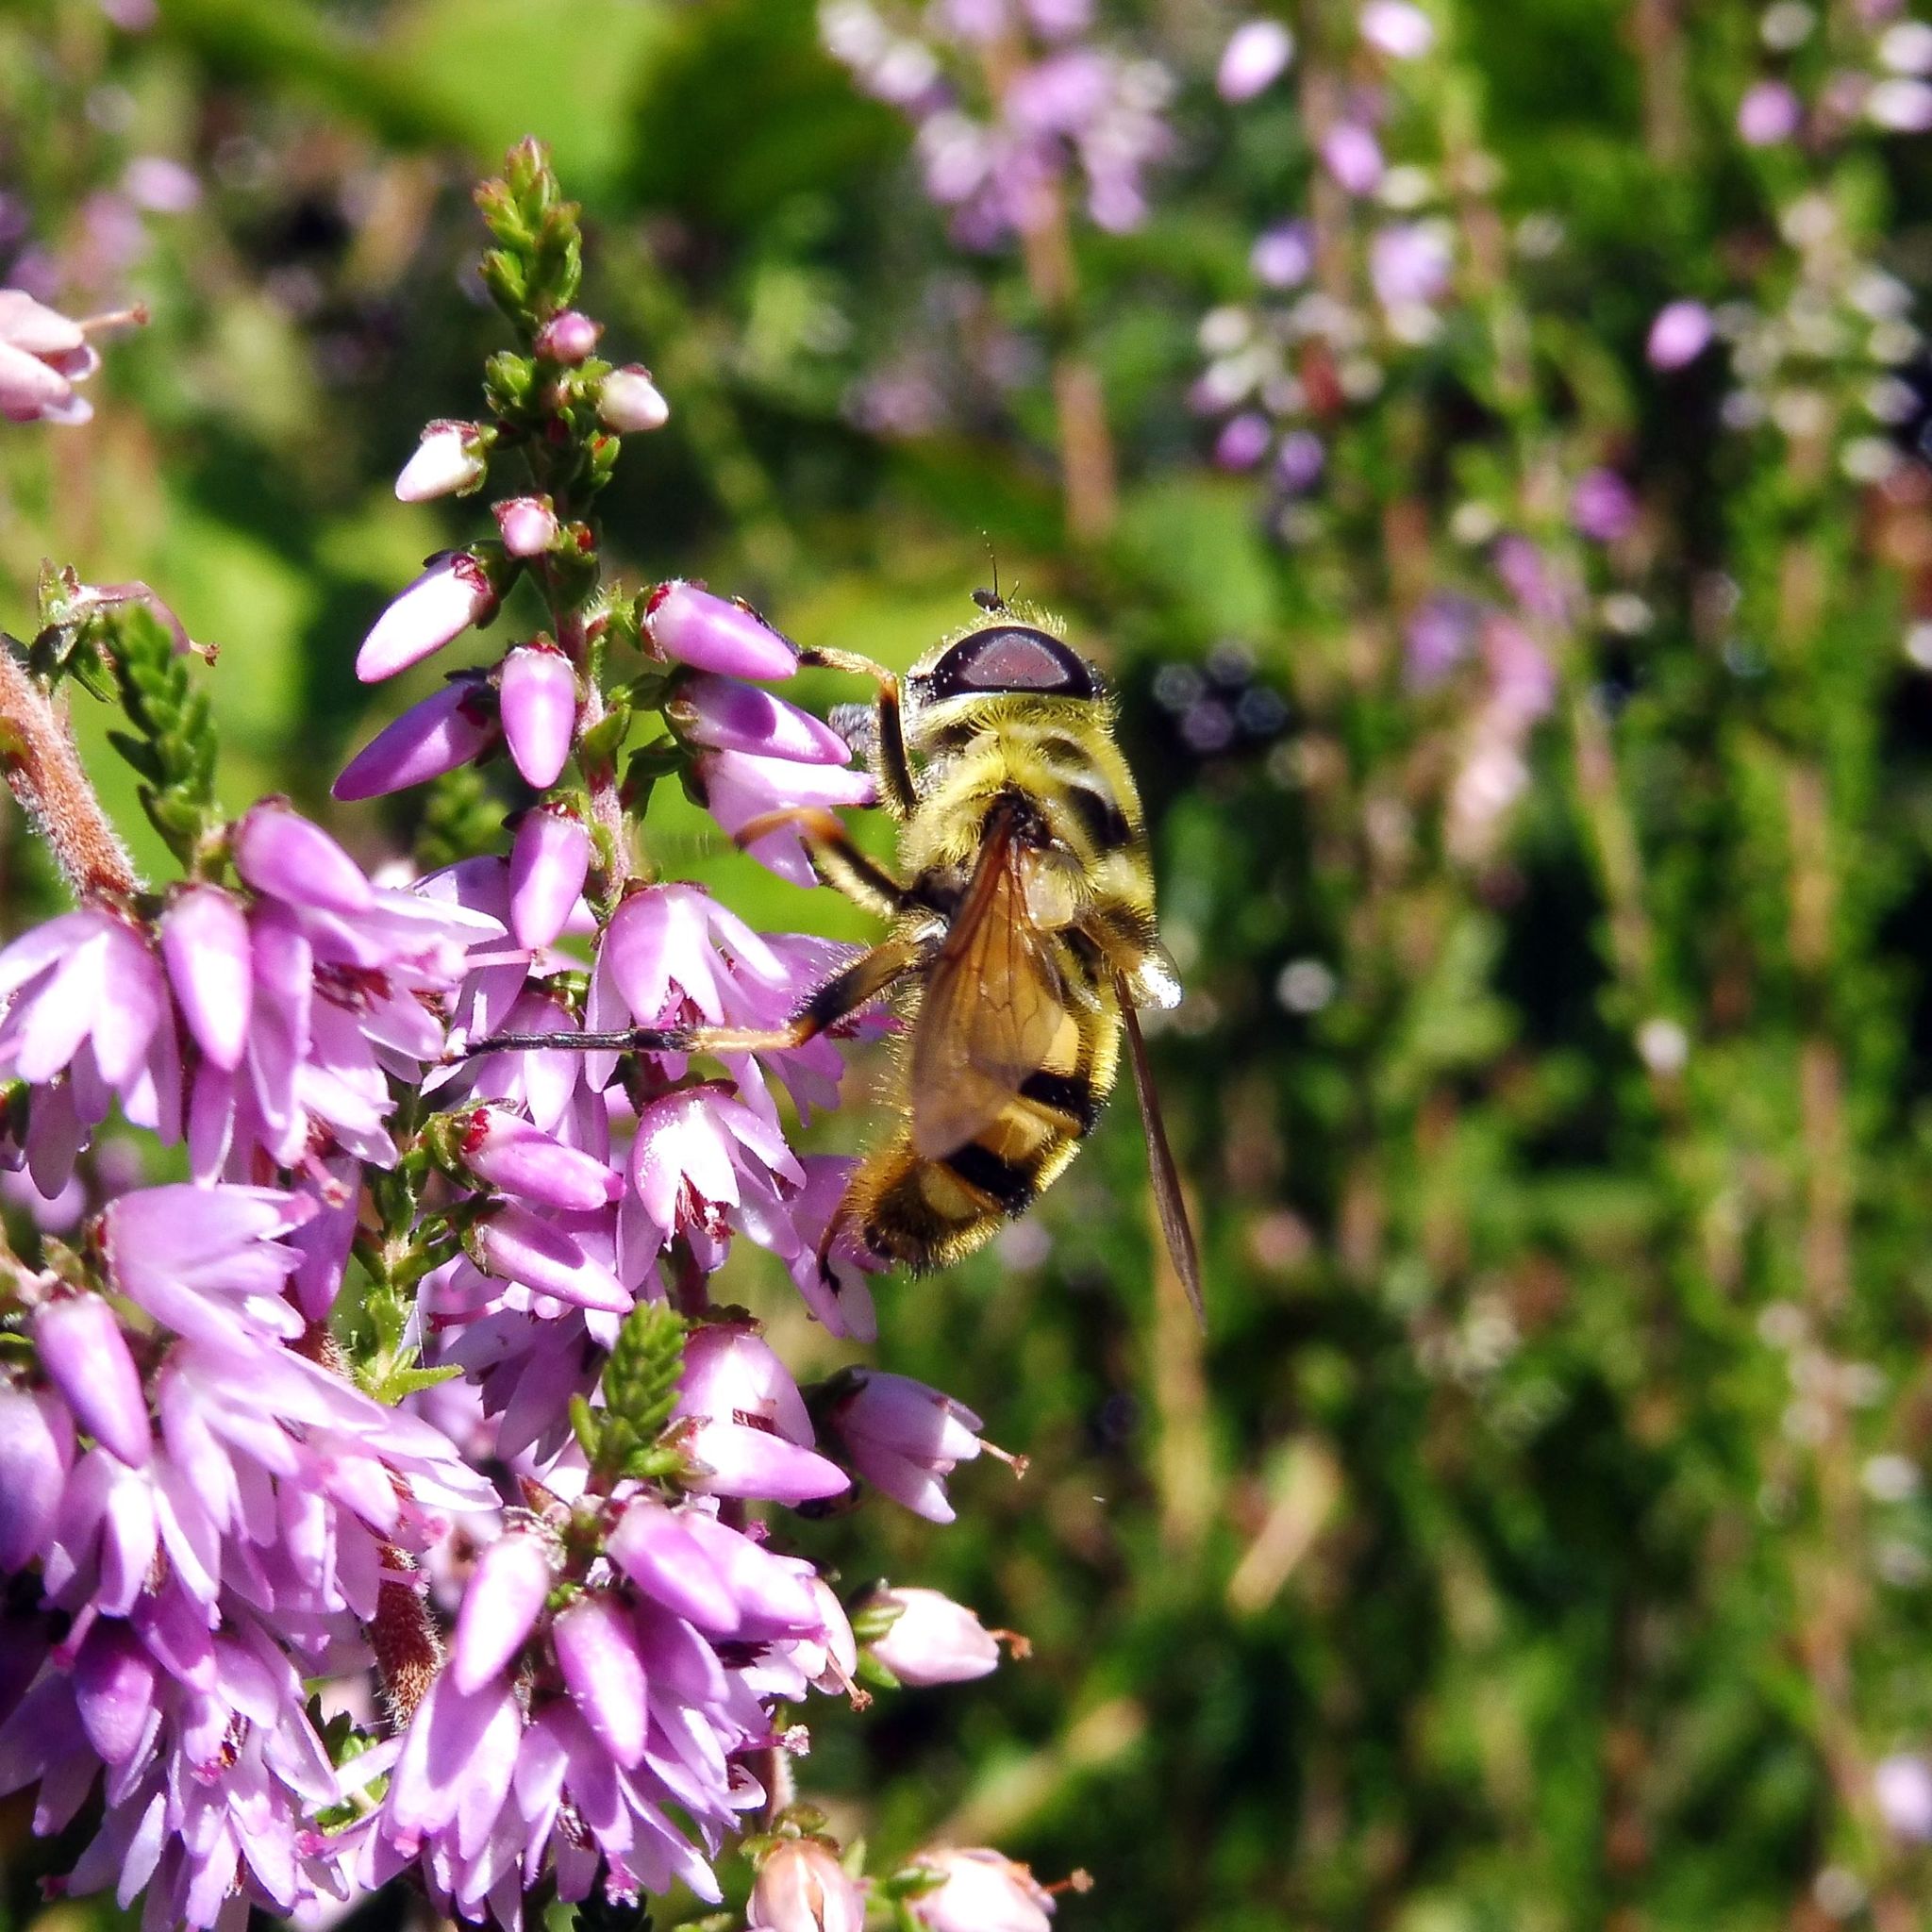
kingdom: Animalia
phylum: Arthropoda
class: Insecta
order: Diptera
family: Syrphidae
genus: Myathropa
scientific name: Myathropa florea
